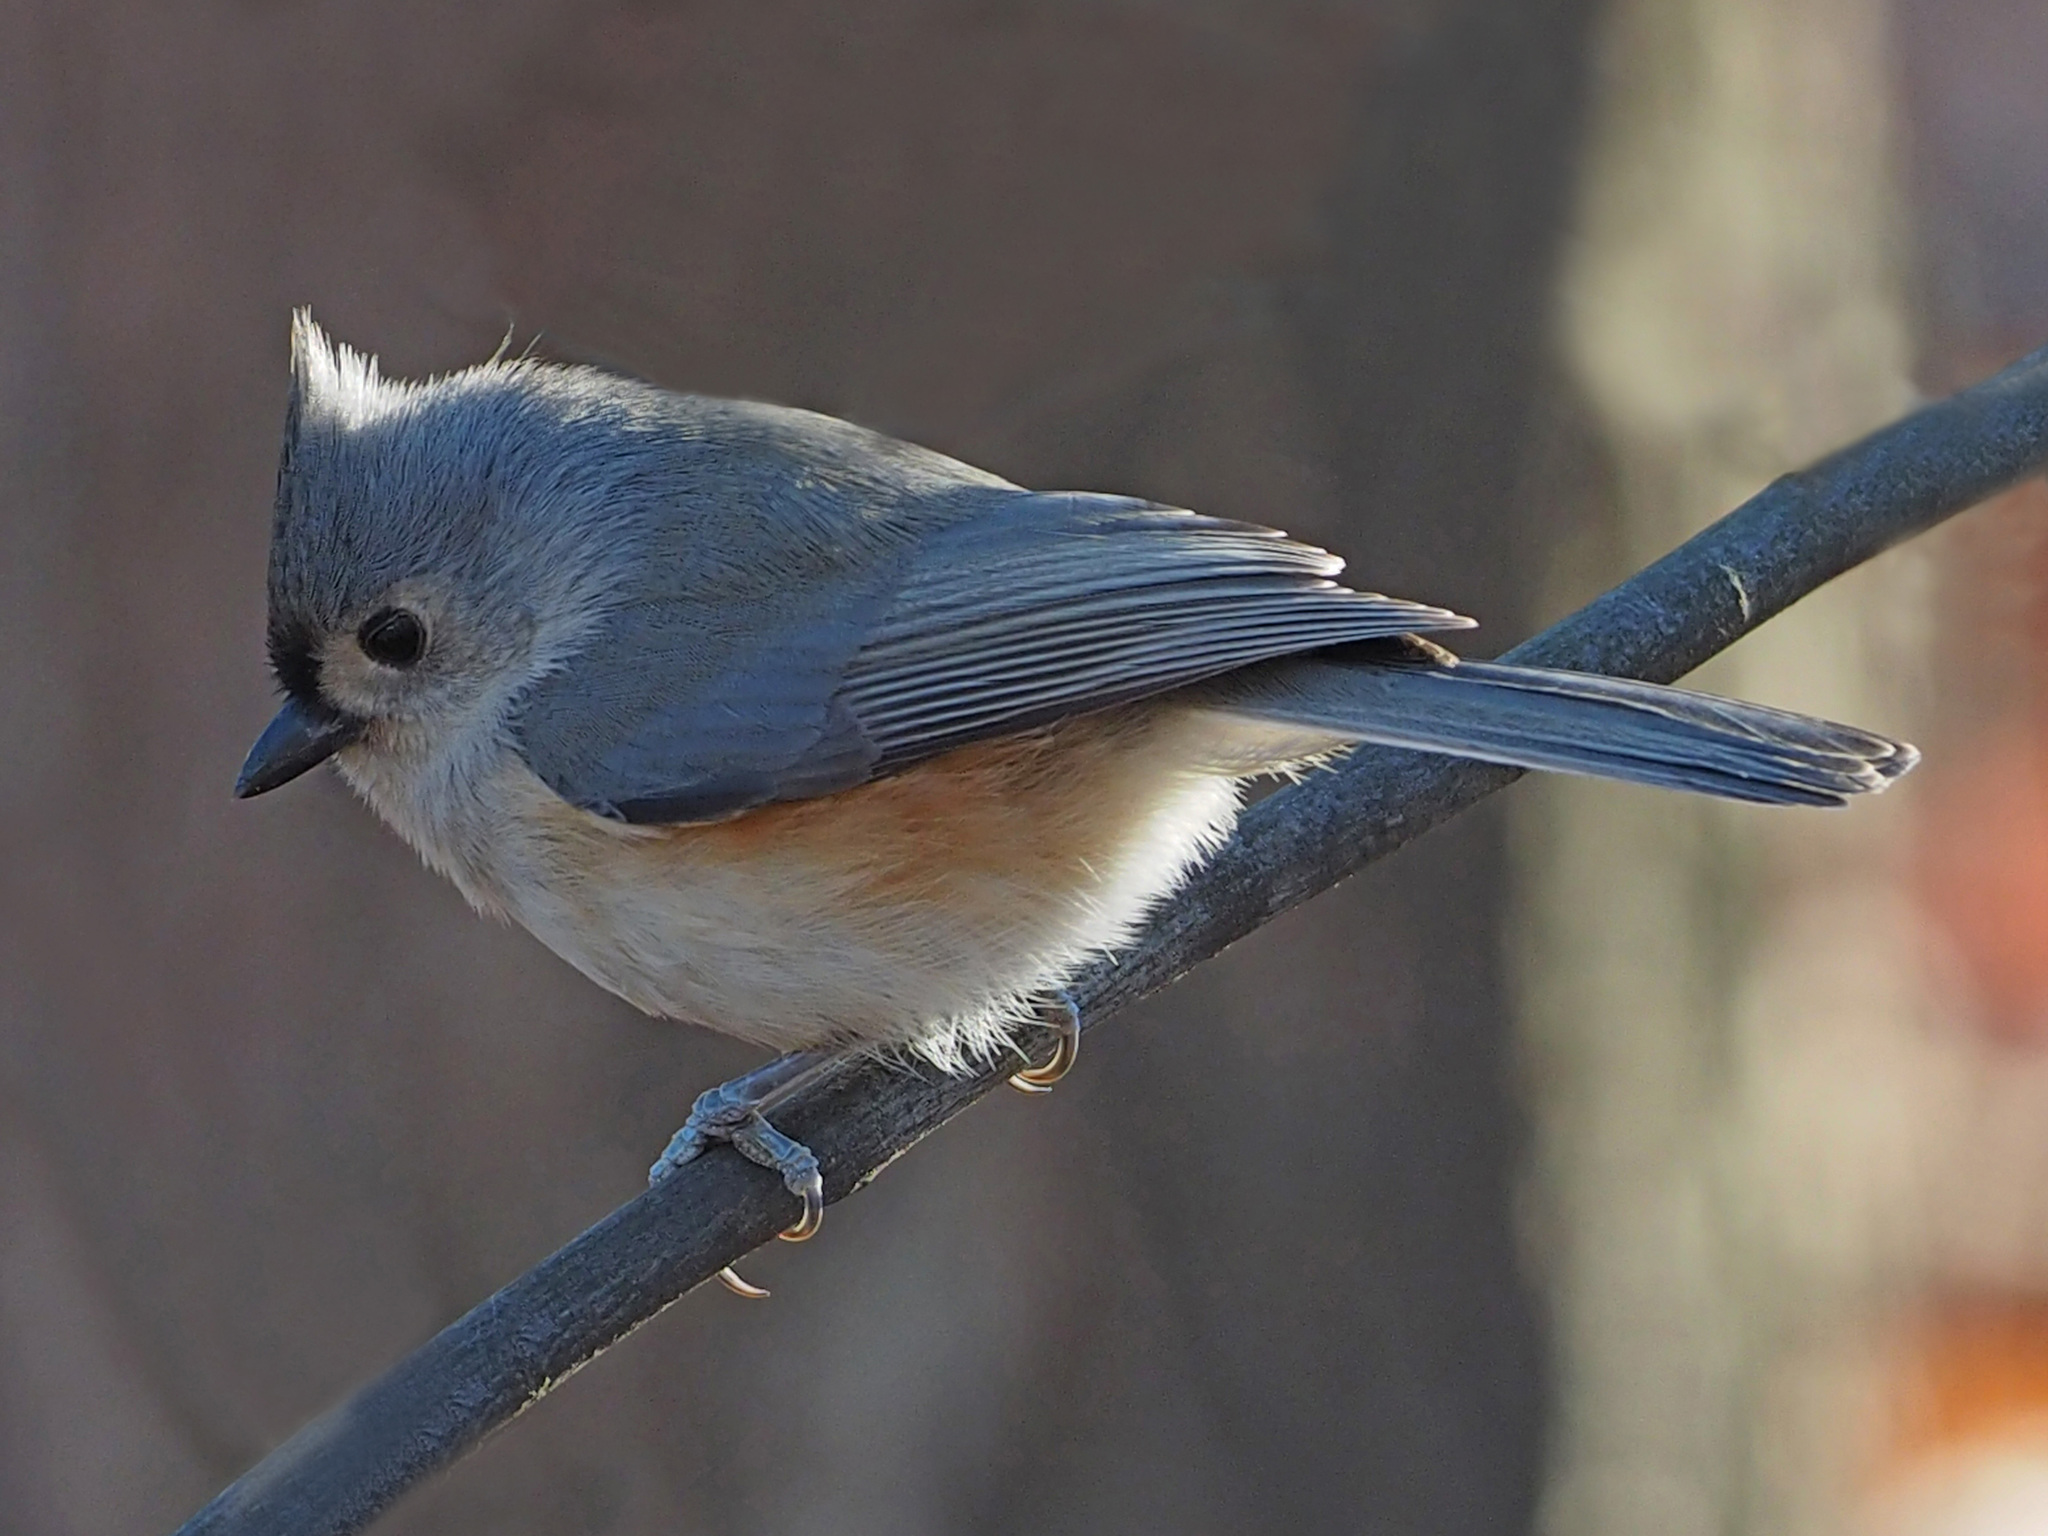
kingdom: Animalia
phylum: Chordata
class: Aves
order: Passeriformes
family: Paridae
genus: Baeolophus
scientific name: Baeolophus bicolor
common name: Tufted titmouse
